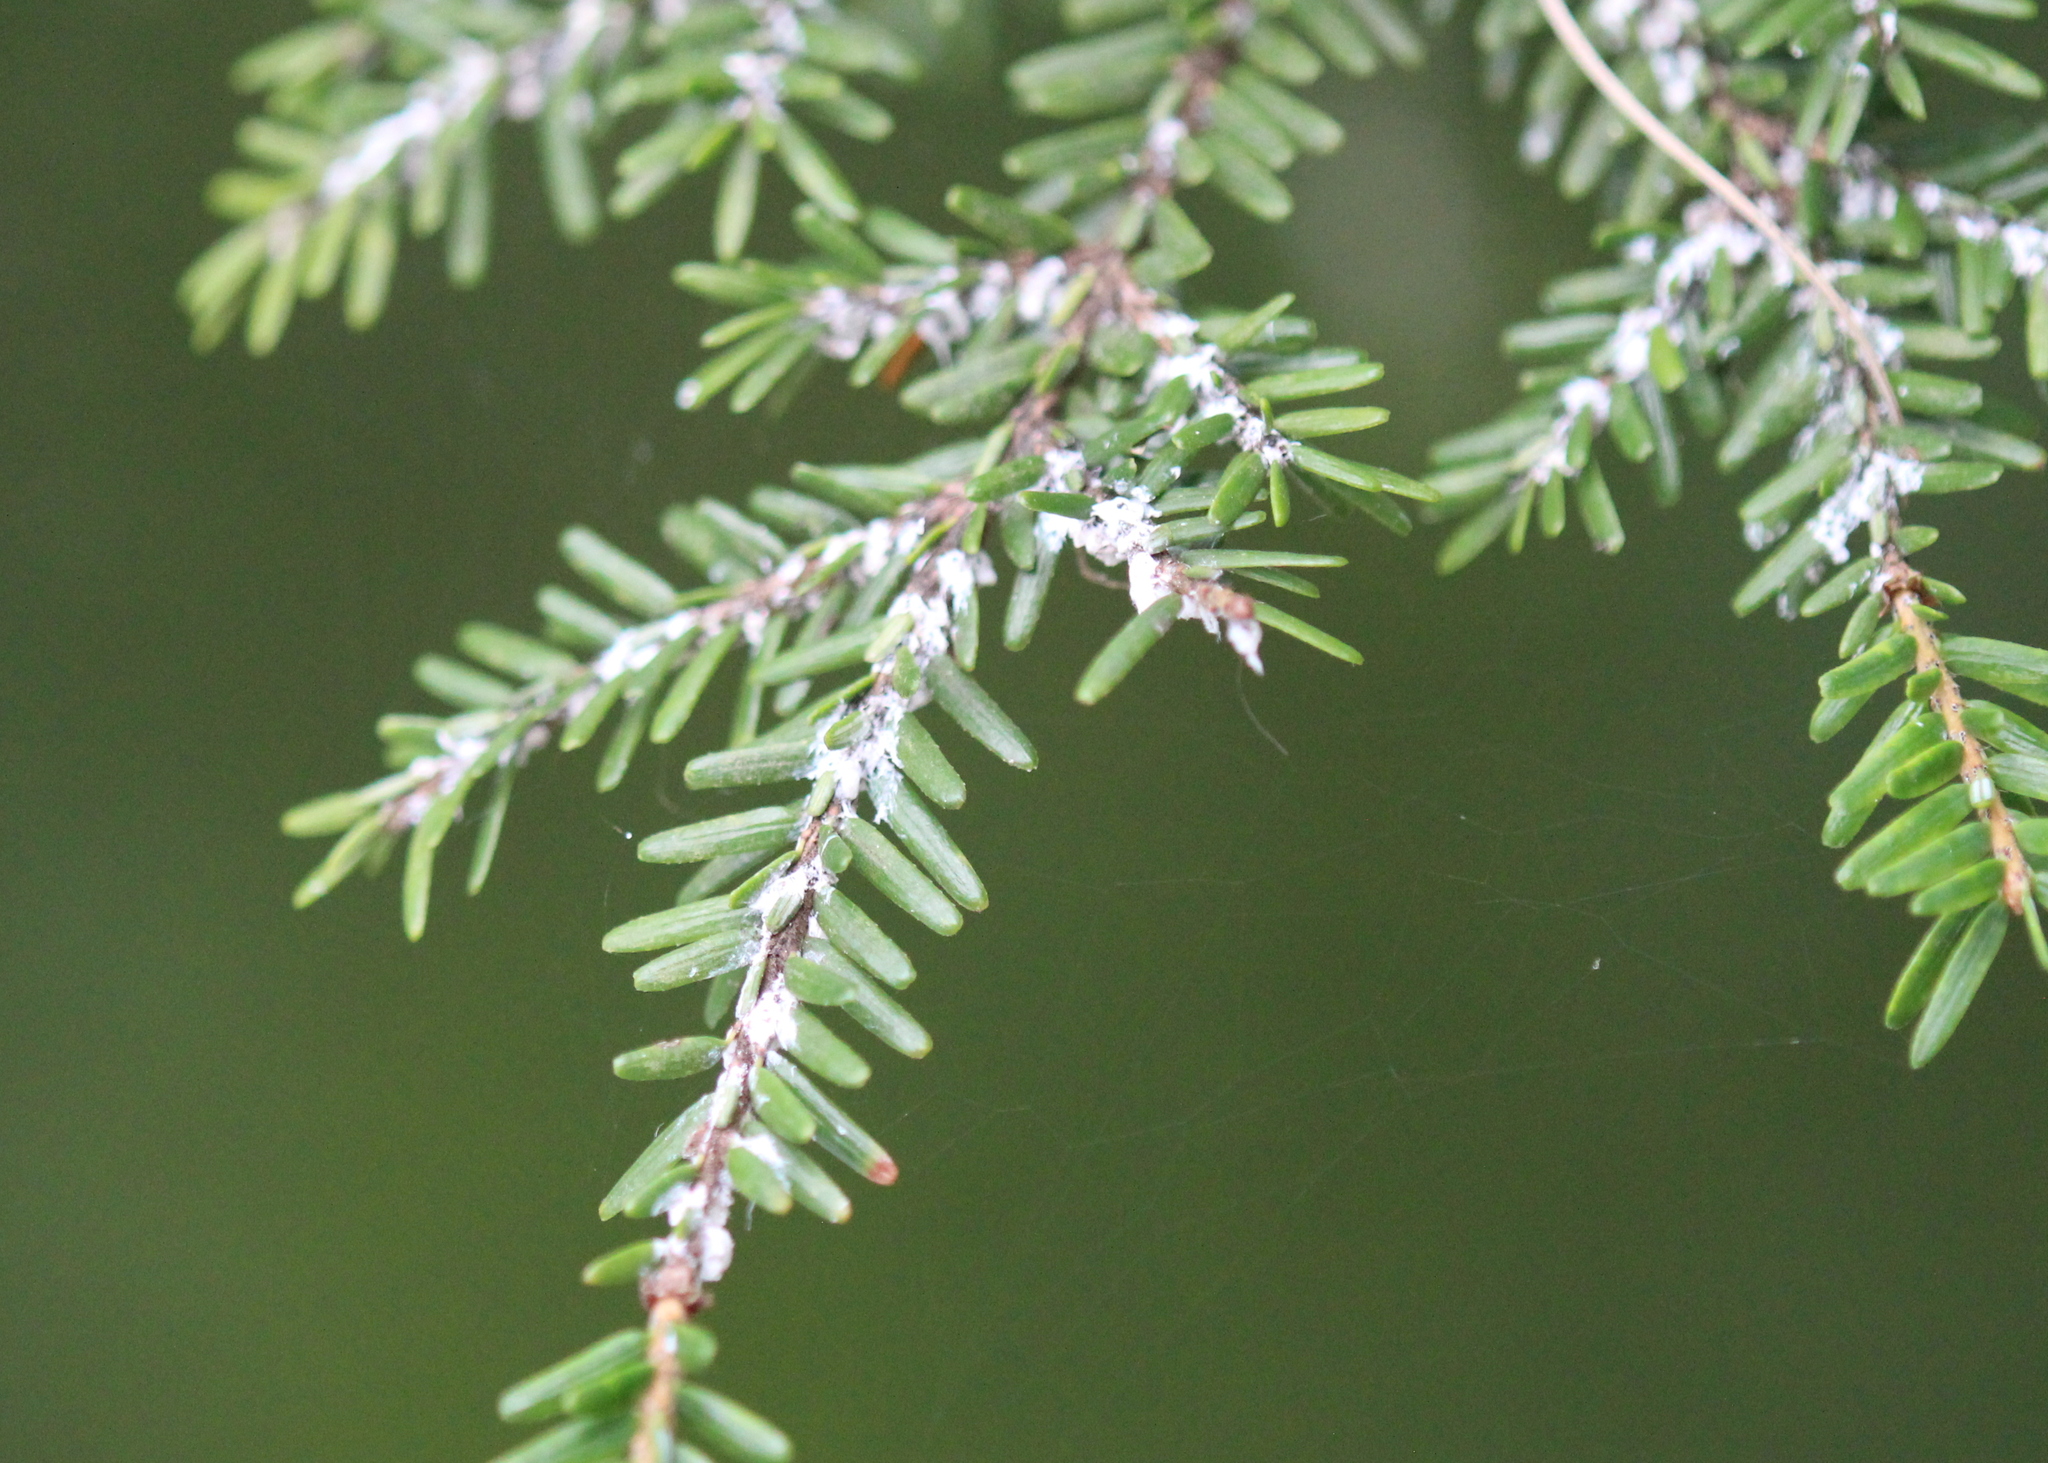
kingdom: Animalia
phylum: Arthropoda
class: Insecta
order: Hemiptera
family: Adelgidae
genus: Adelges
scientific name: Adelges tsugae
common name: Hemlock woolly adelgid
